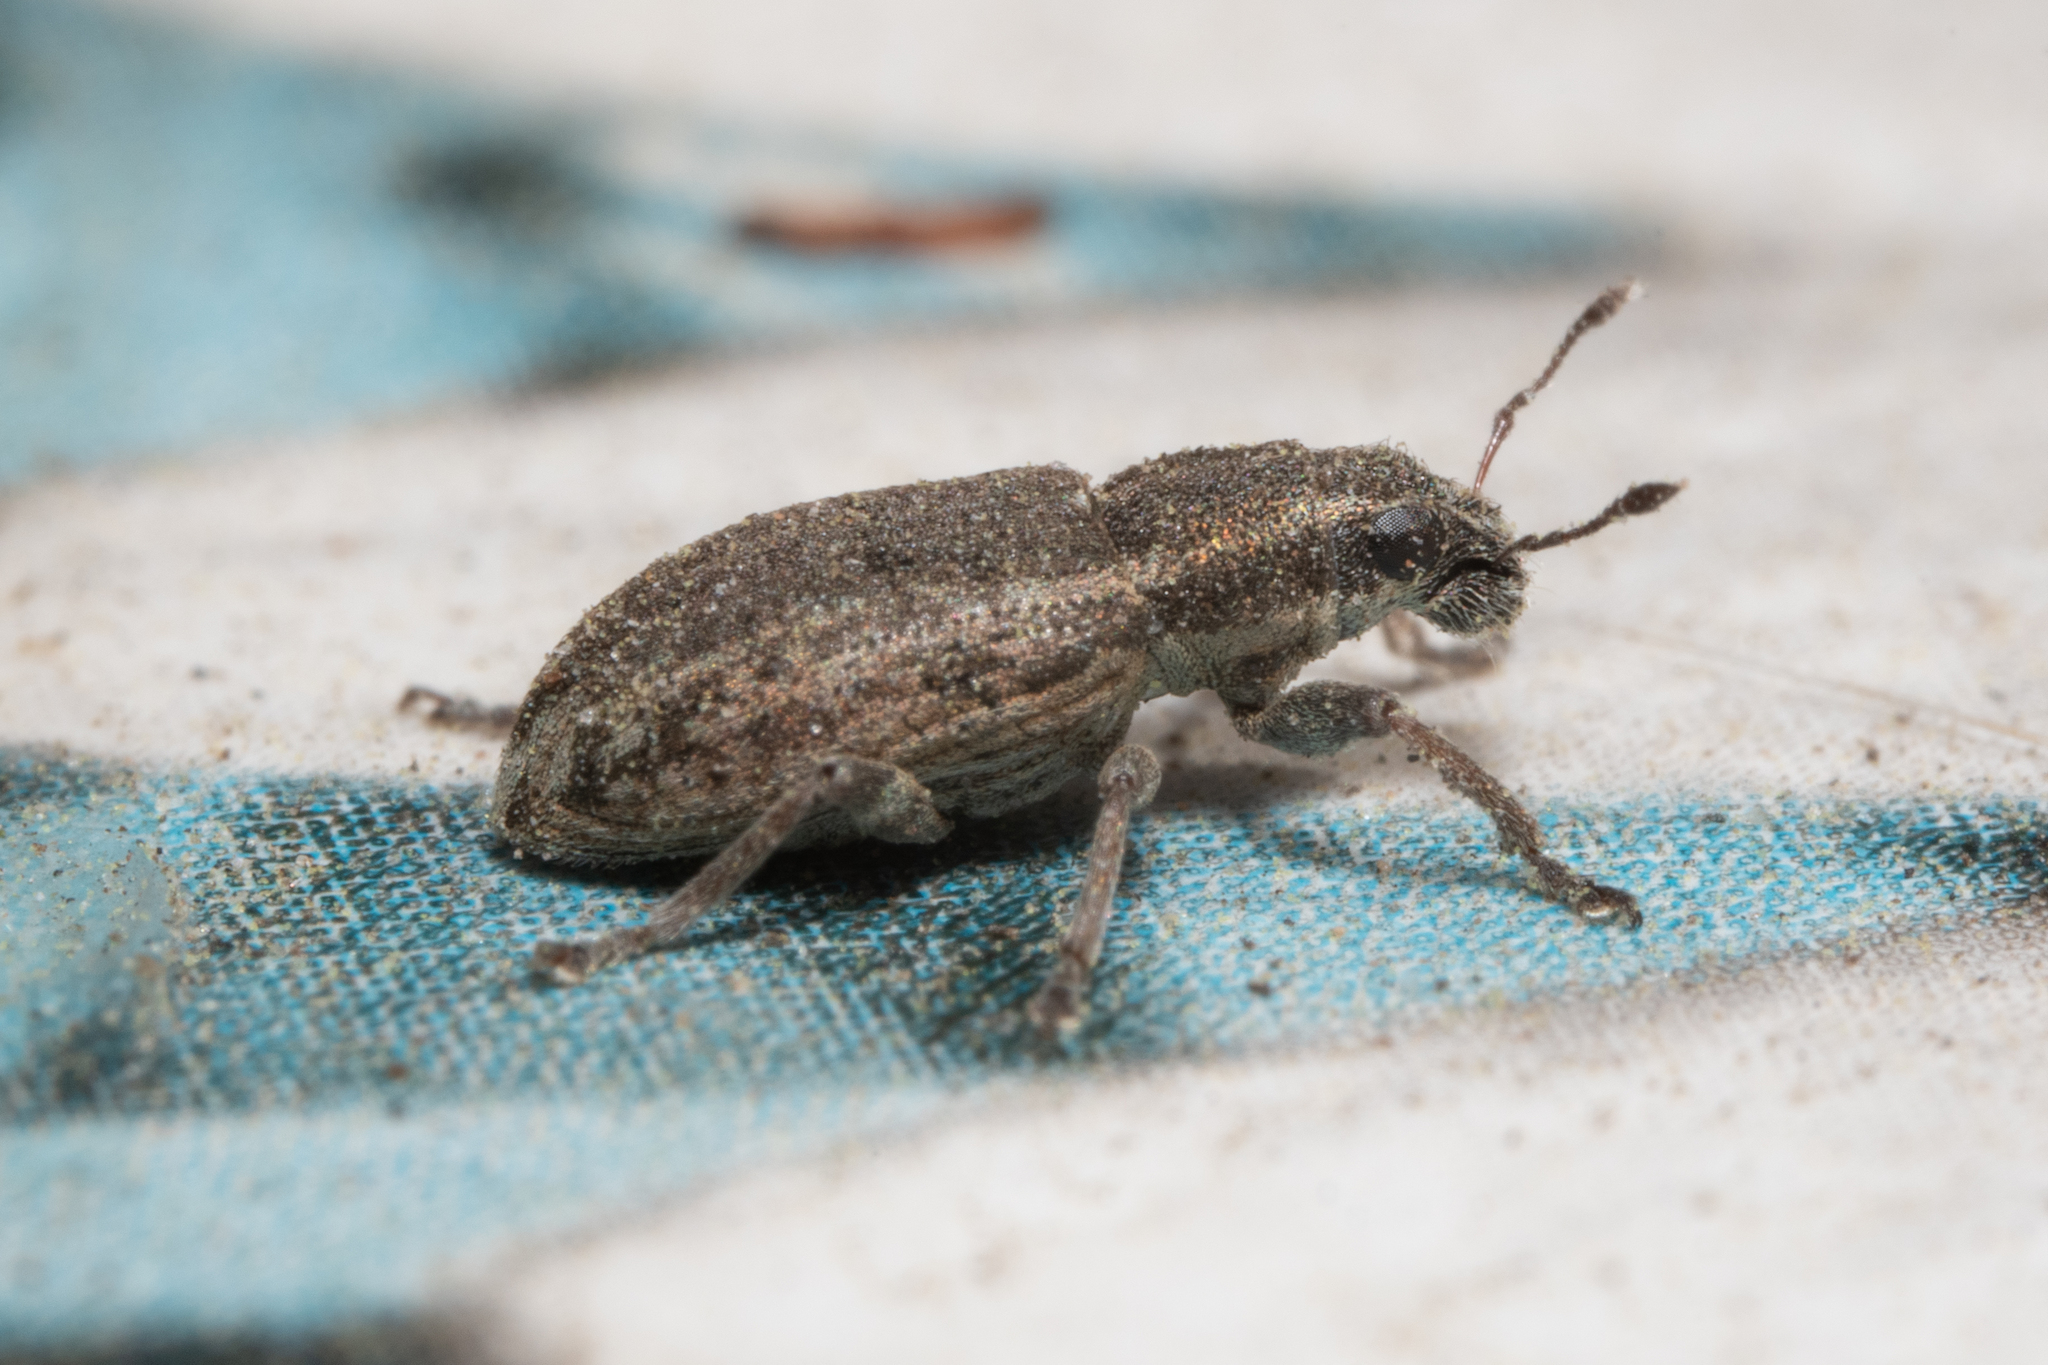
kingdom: Animalia
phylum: Arthropoda
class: Insecta
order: Coleoptera
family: Curculionidae
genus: Sitona
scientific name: Sitona humeralis
